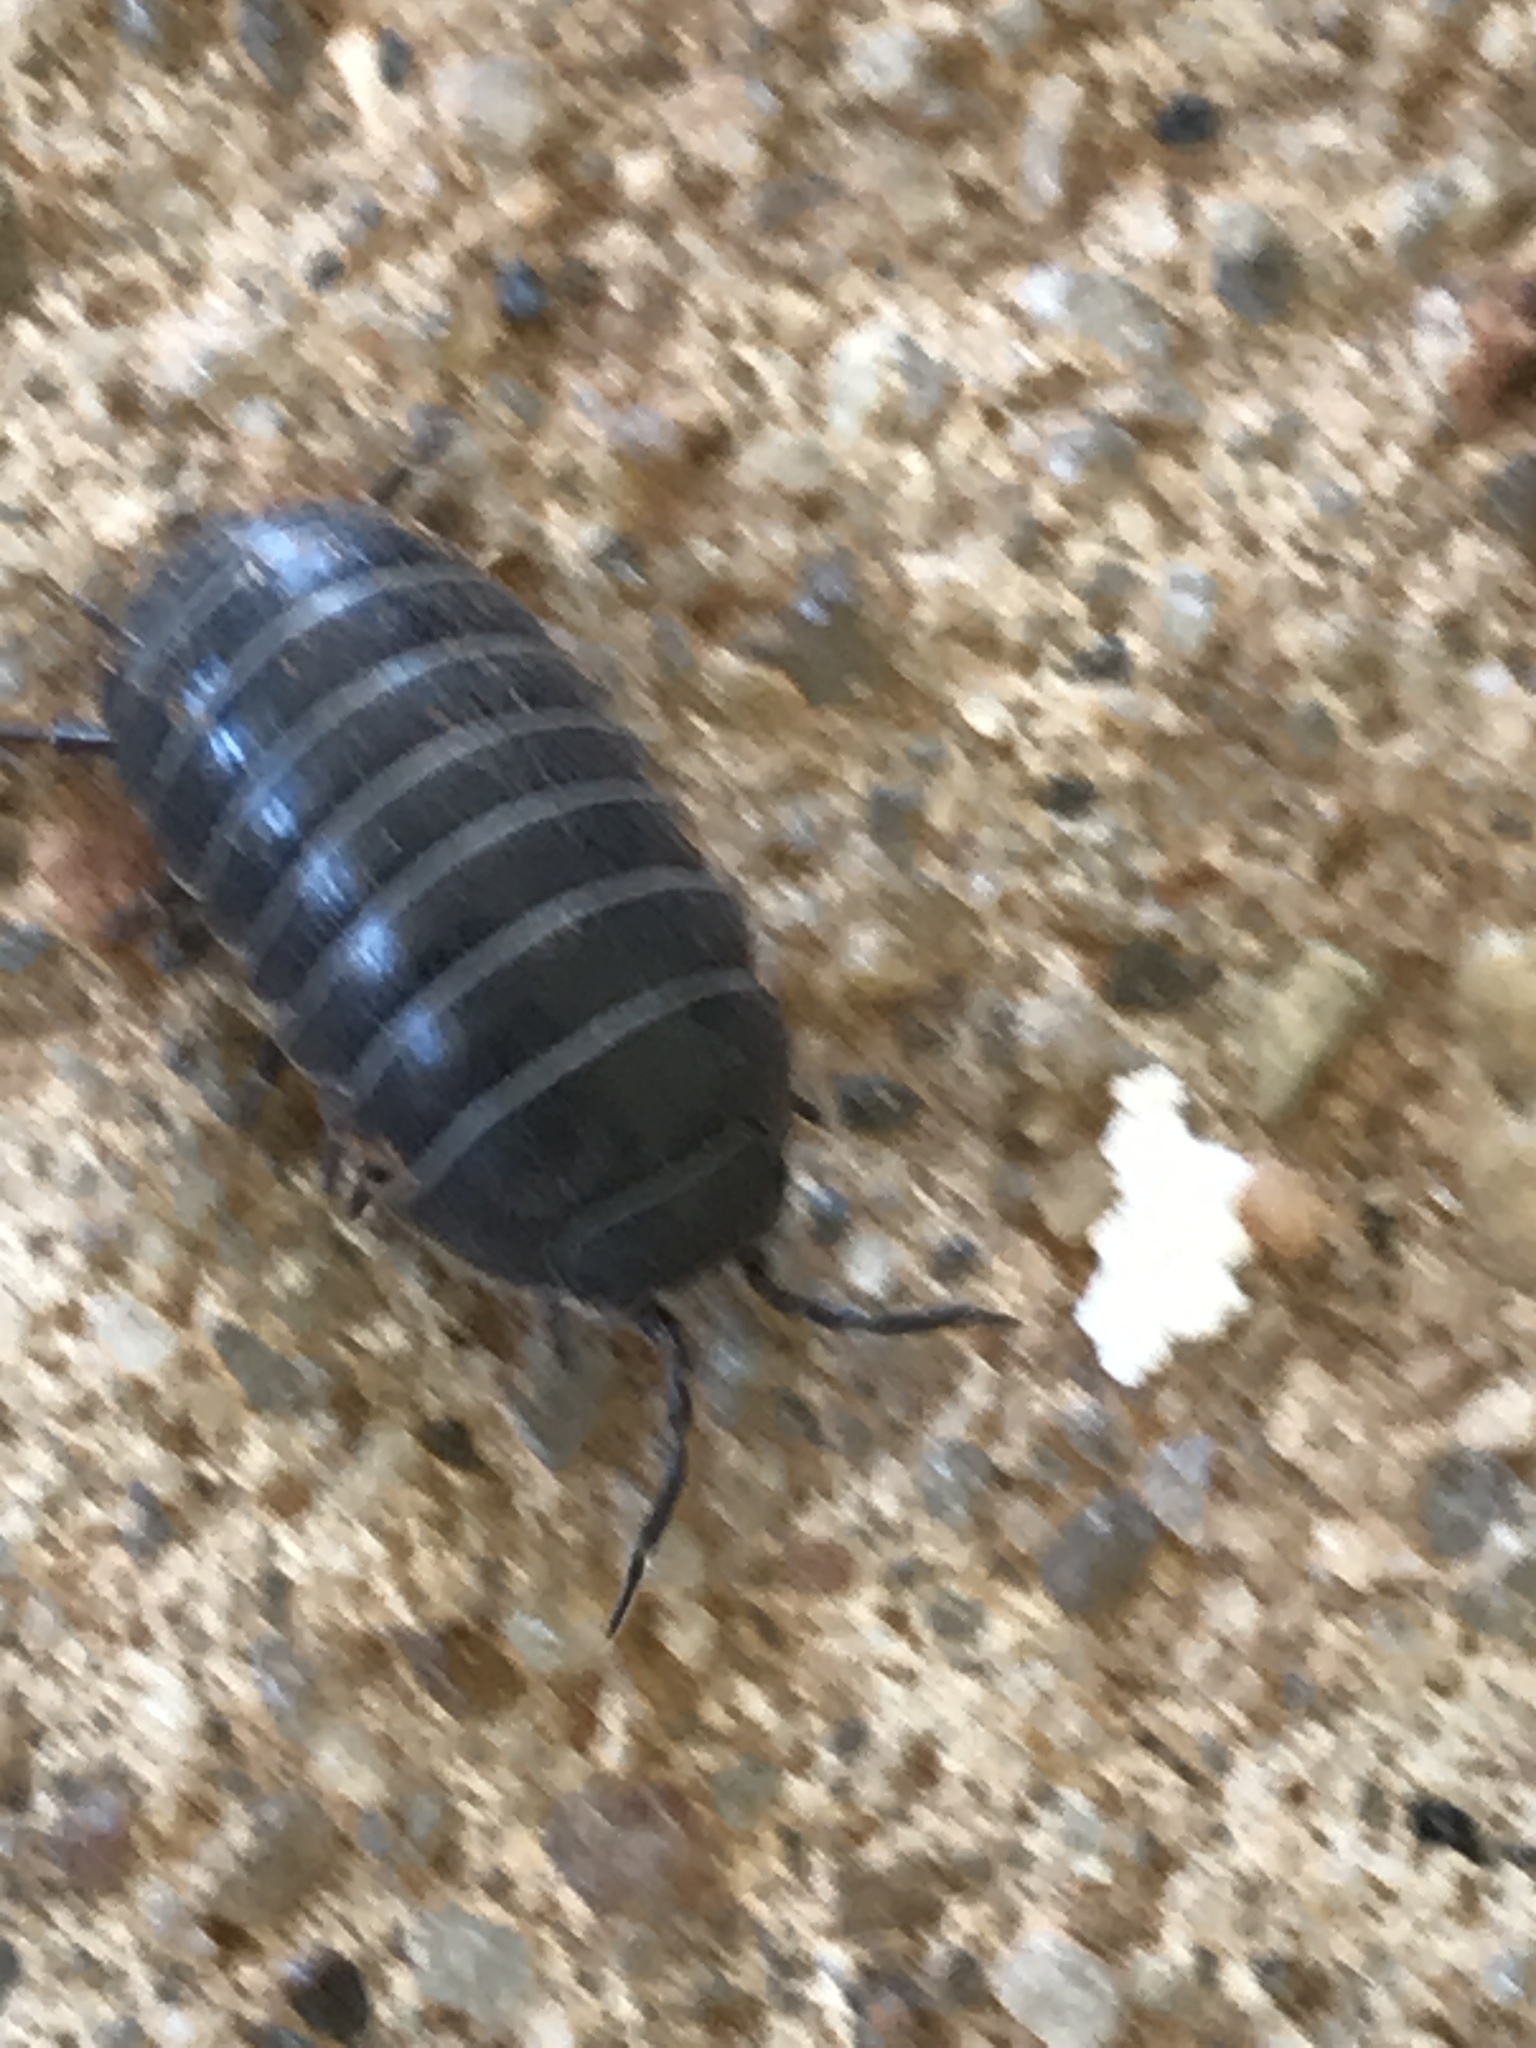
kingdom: Animalia
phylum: Arthropoda
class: Malacostraca
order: Isopoda
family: Armadillidiidae
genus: Armadillidium
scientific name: Armadillidium vulgare
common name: Common pill woodlouse
